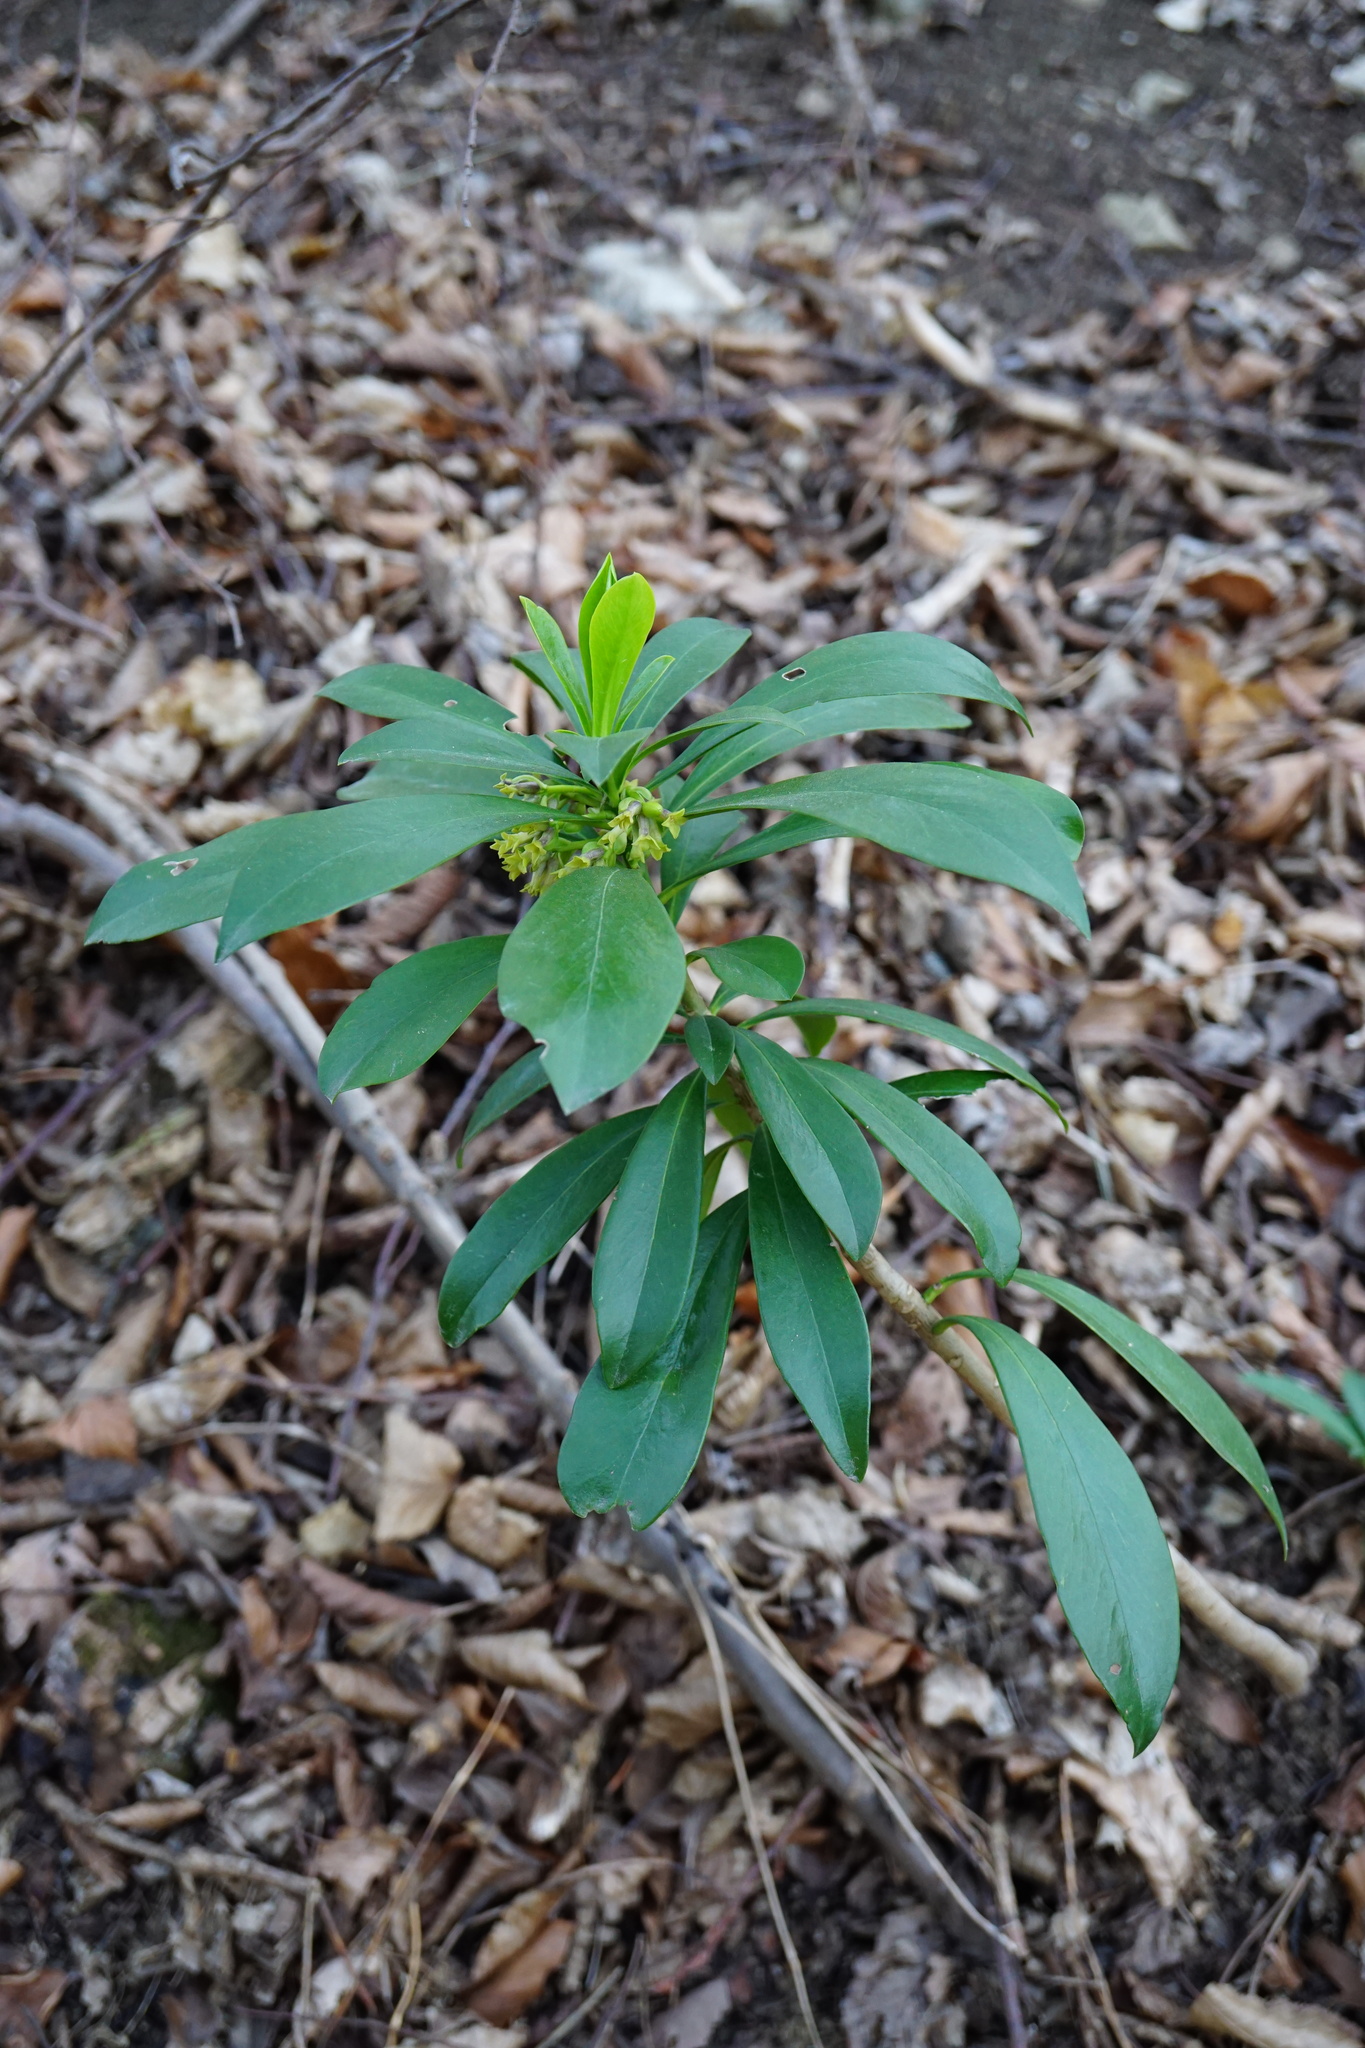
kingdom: Plantae
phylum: Tracheophyta
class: Magnoliopsida
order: Malvales
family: Thymelaeaceae
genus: Daphne
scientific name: Daphne laureola
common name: Spurge-laurel
